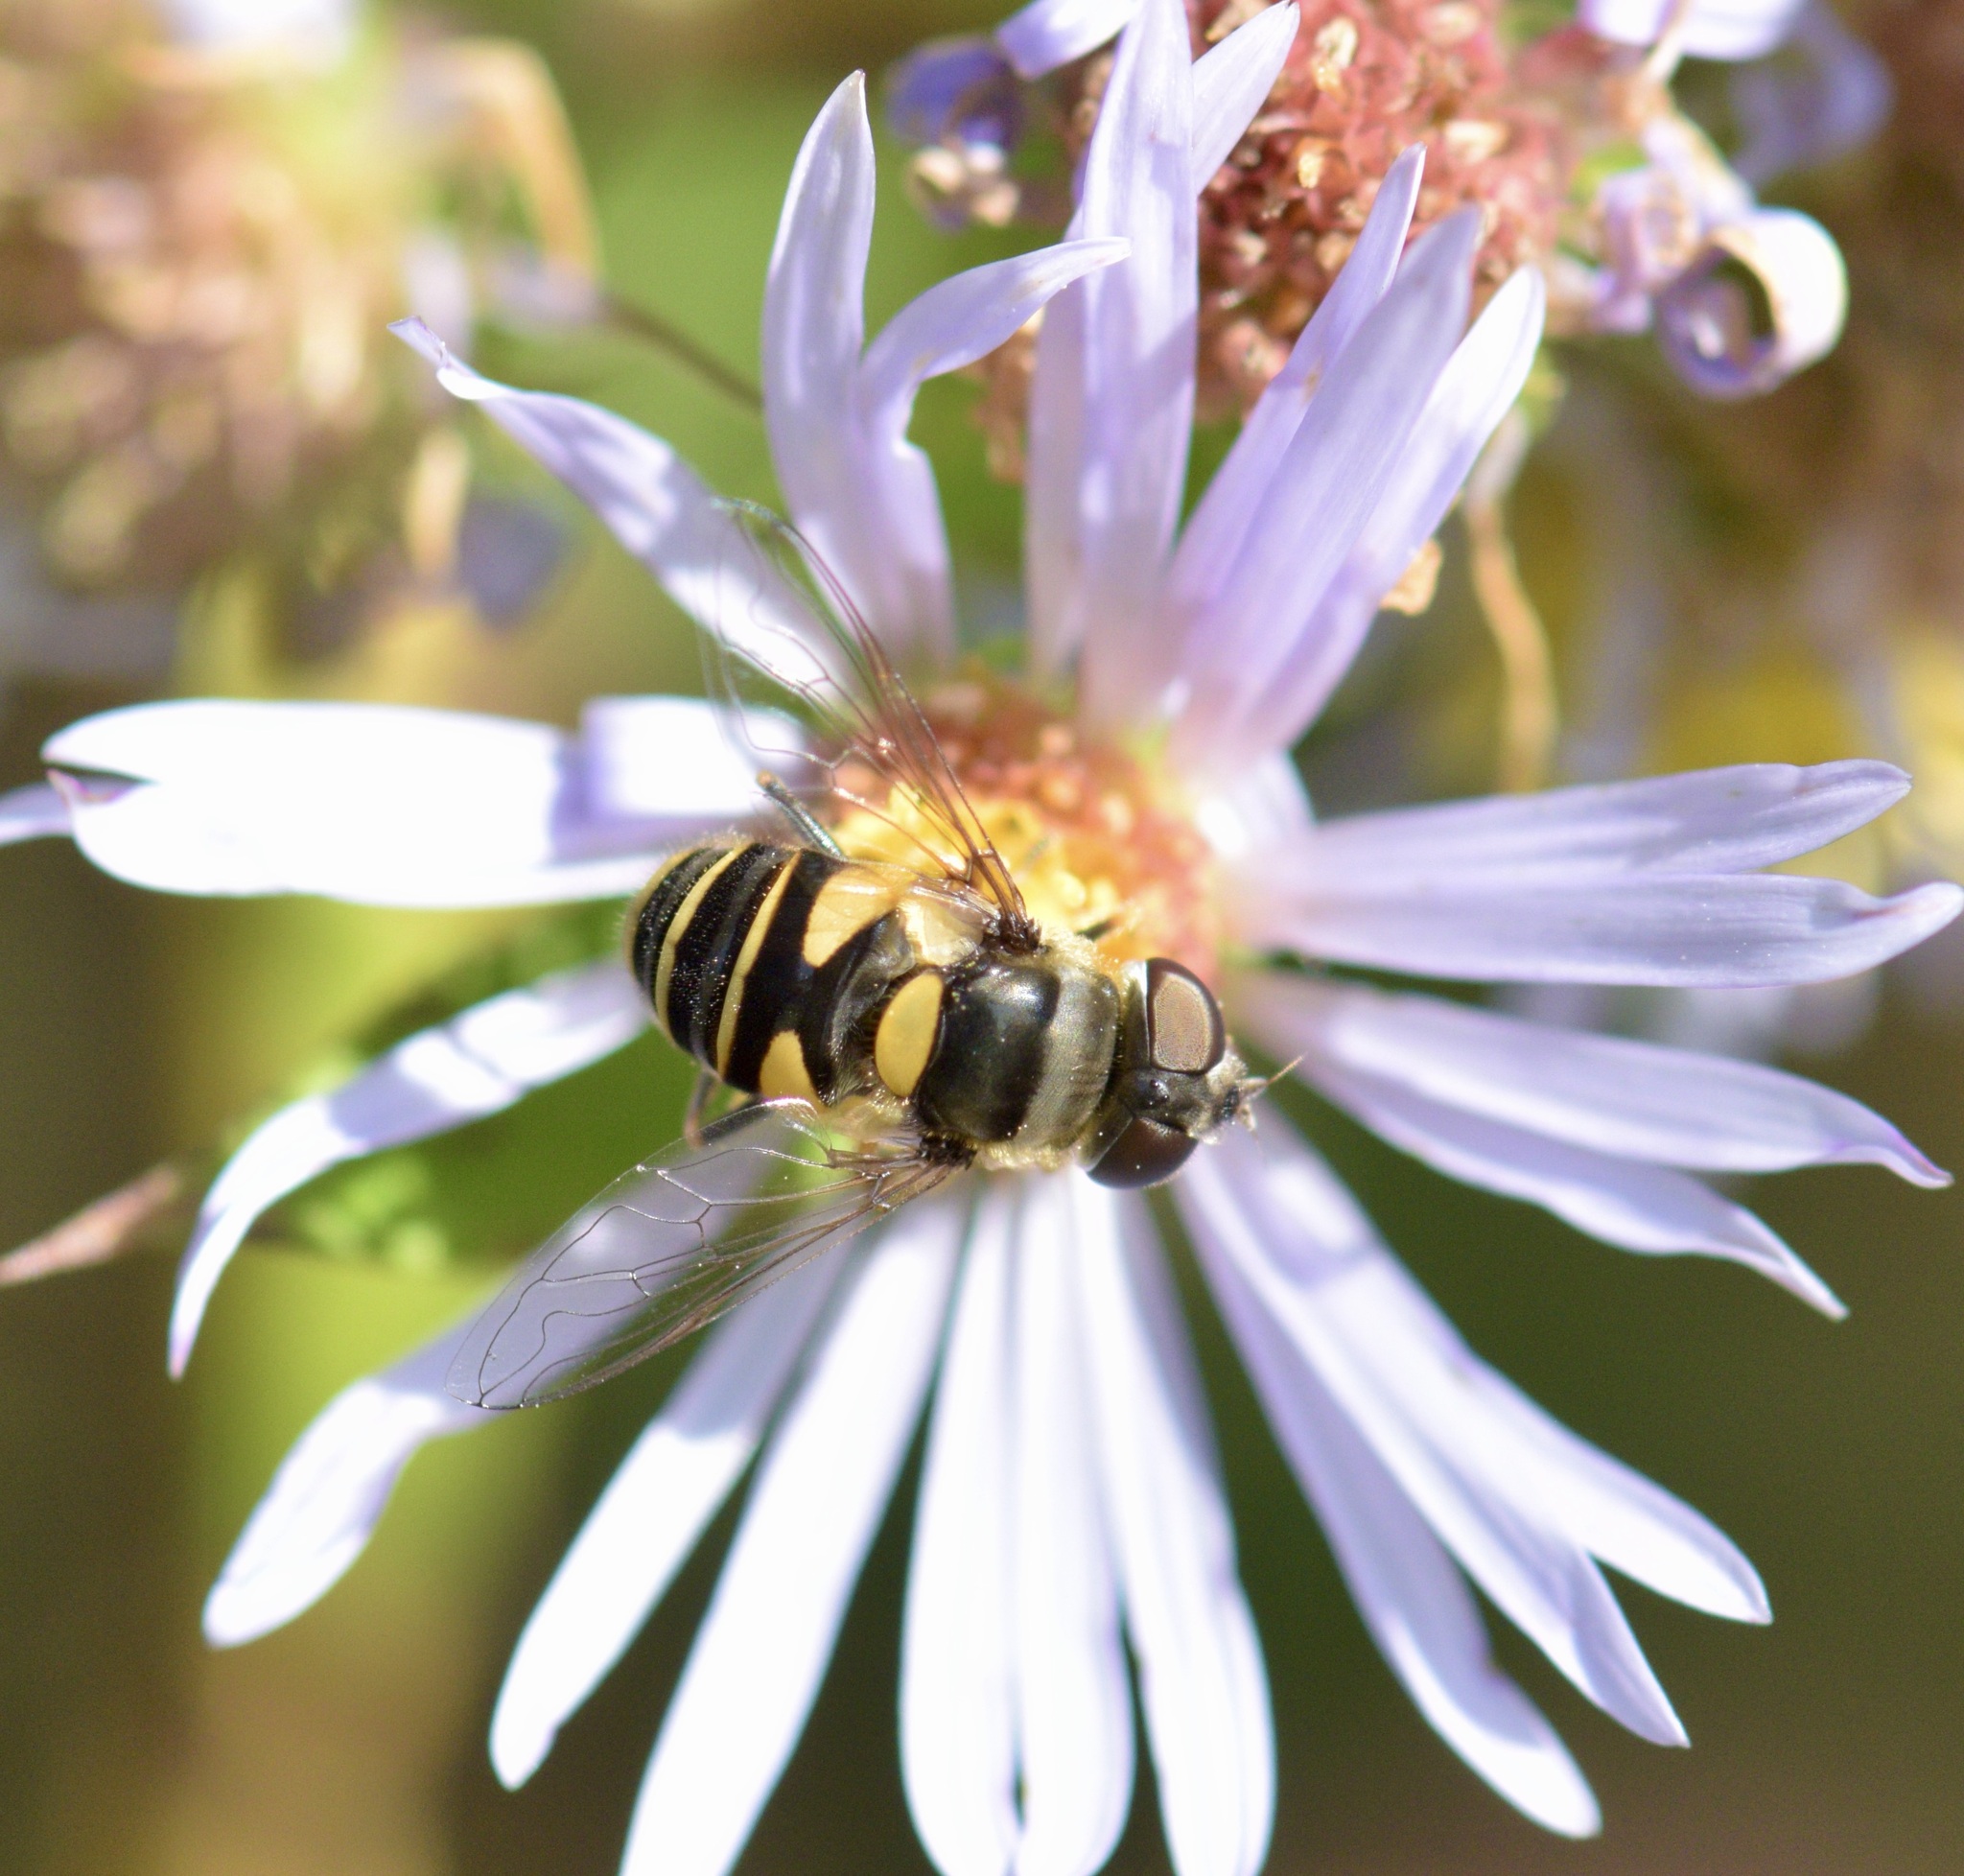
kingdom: Animalia
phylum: Arthropoda
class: Insecta
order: Diptera
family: Syrphidae
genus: Eristalis
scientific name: Eristalis transversa
